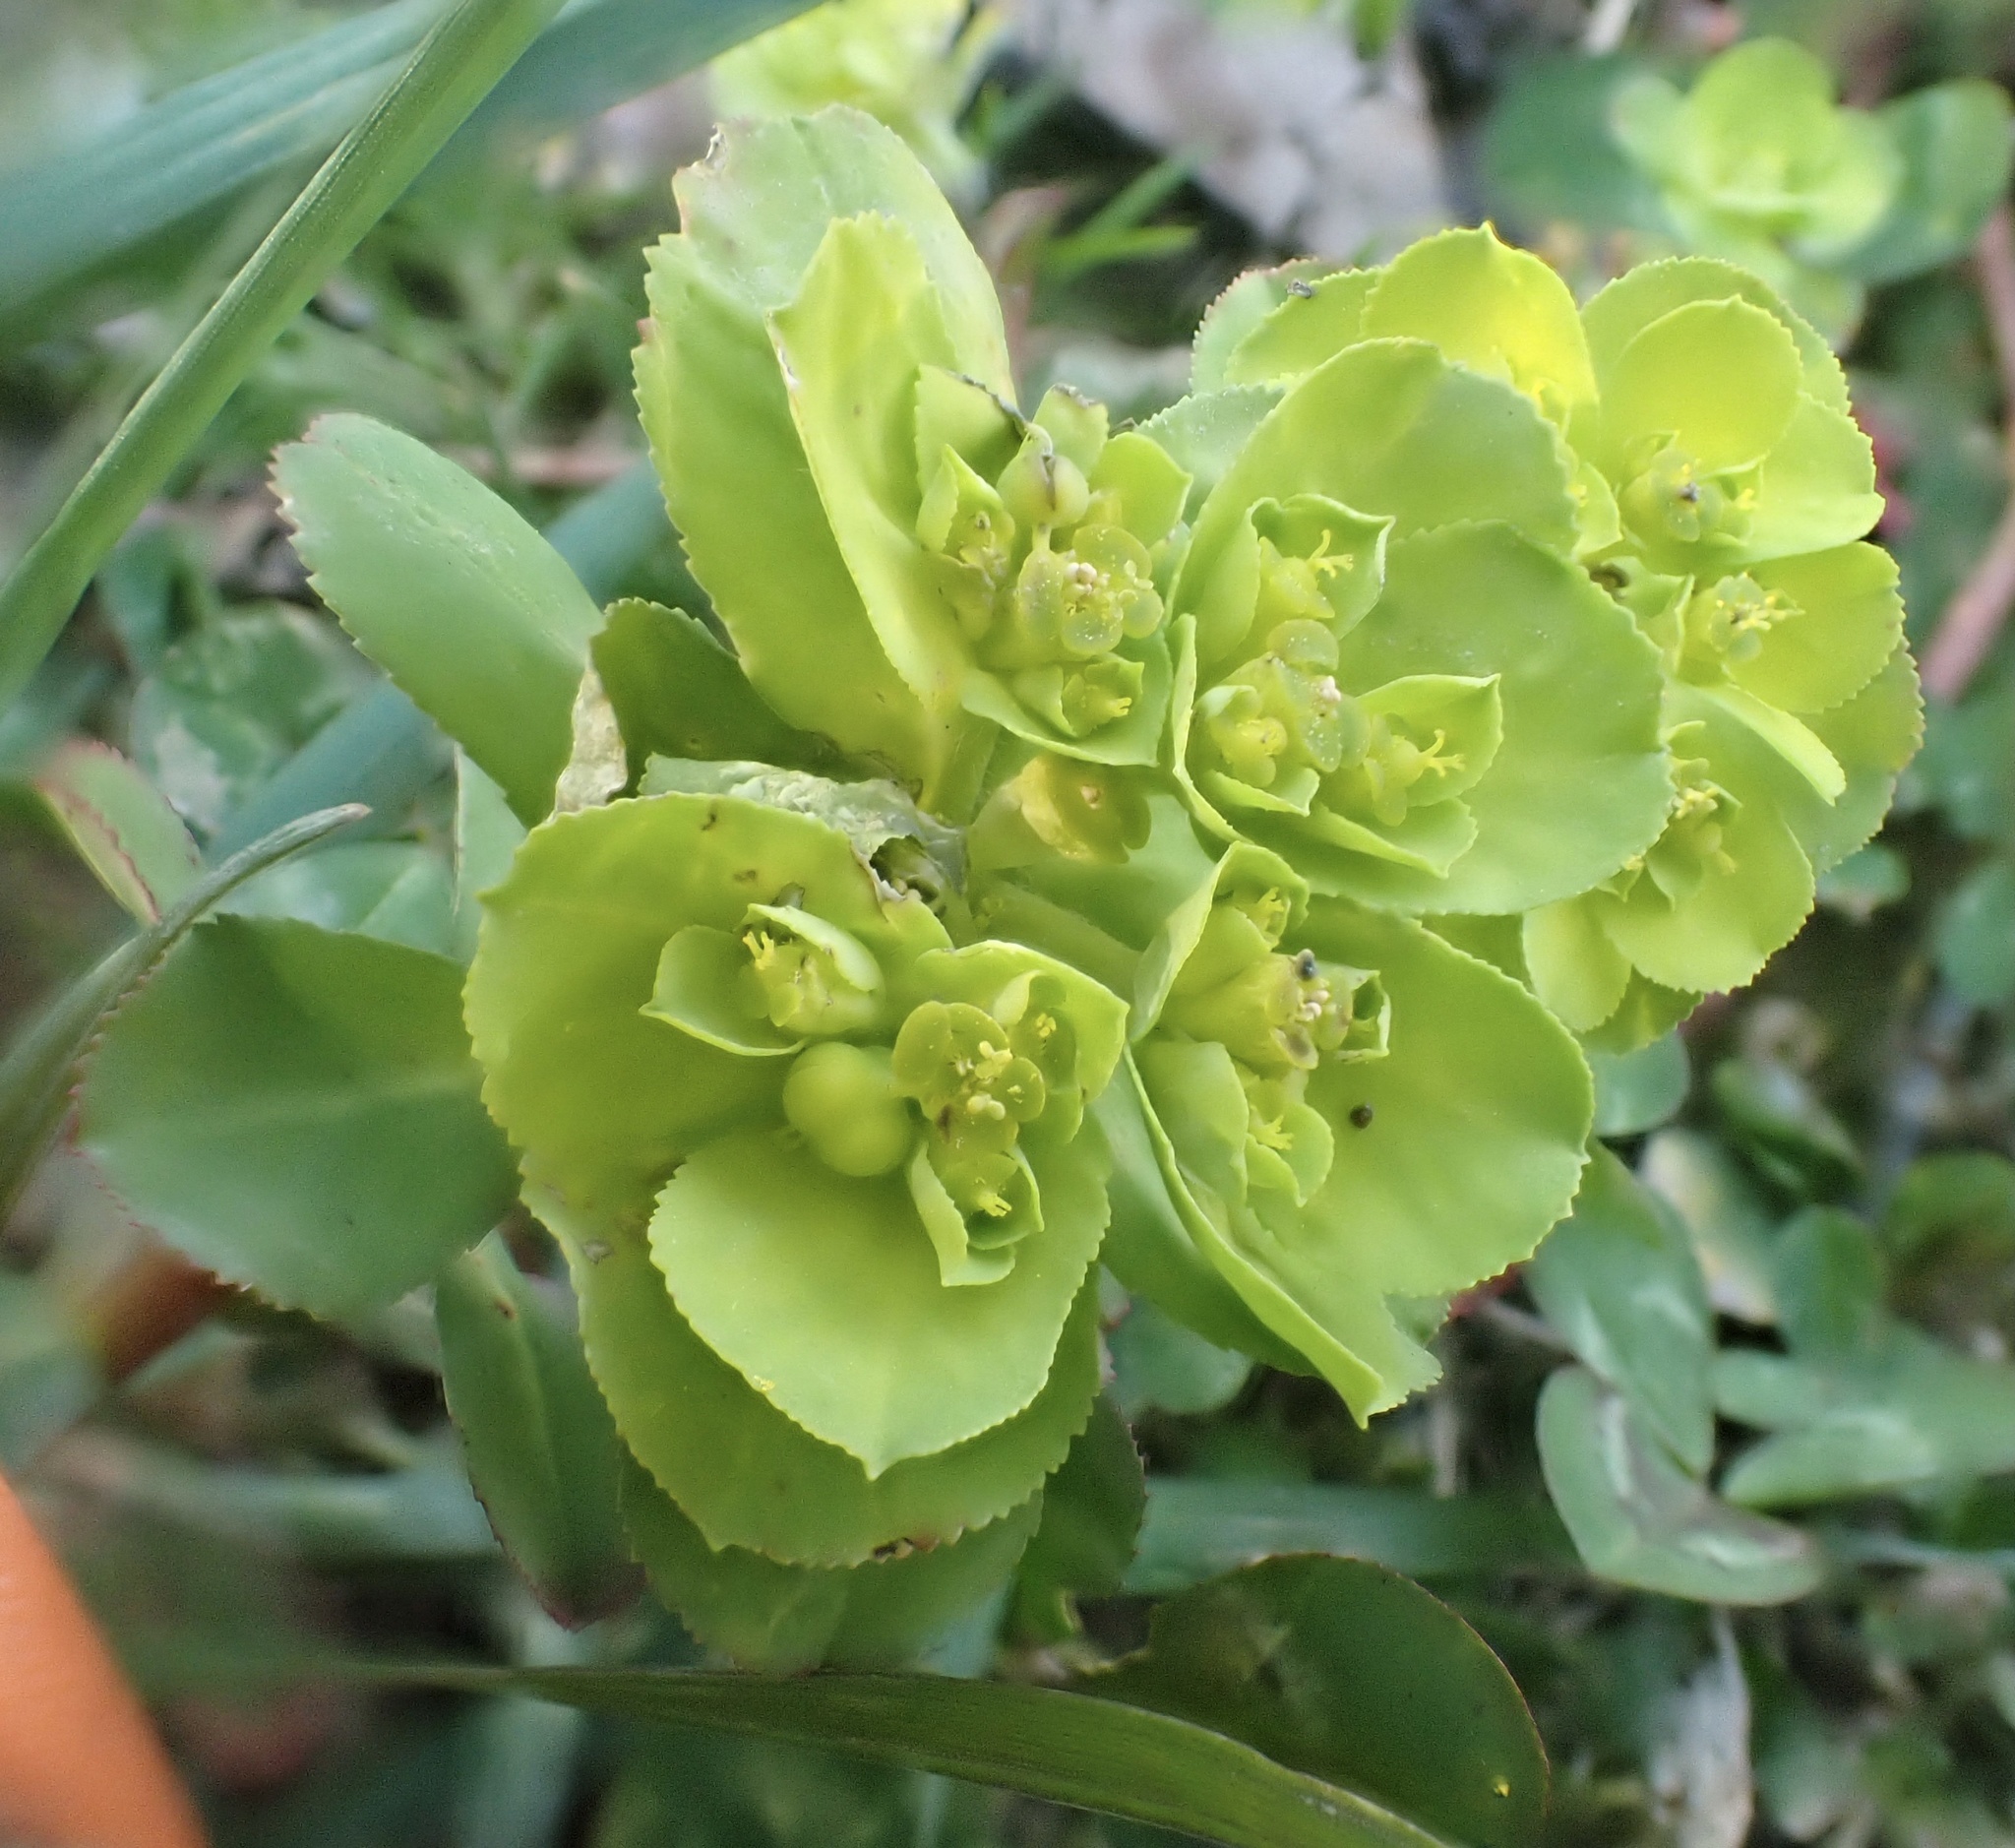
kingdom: Plantae
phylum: Tracheophyta
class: Magnoliopsida
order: Malpighiales
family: Euphorbiaceae
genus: Euphorbia
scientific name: Euphorbia helioscopia
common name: Sun spurge
